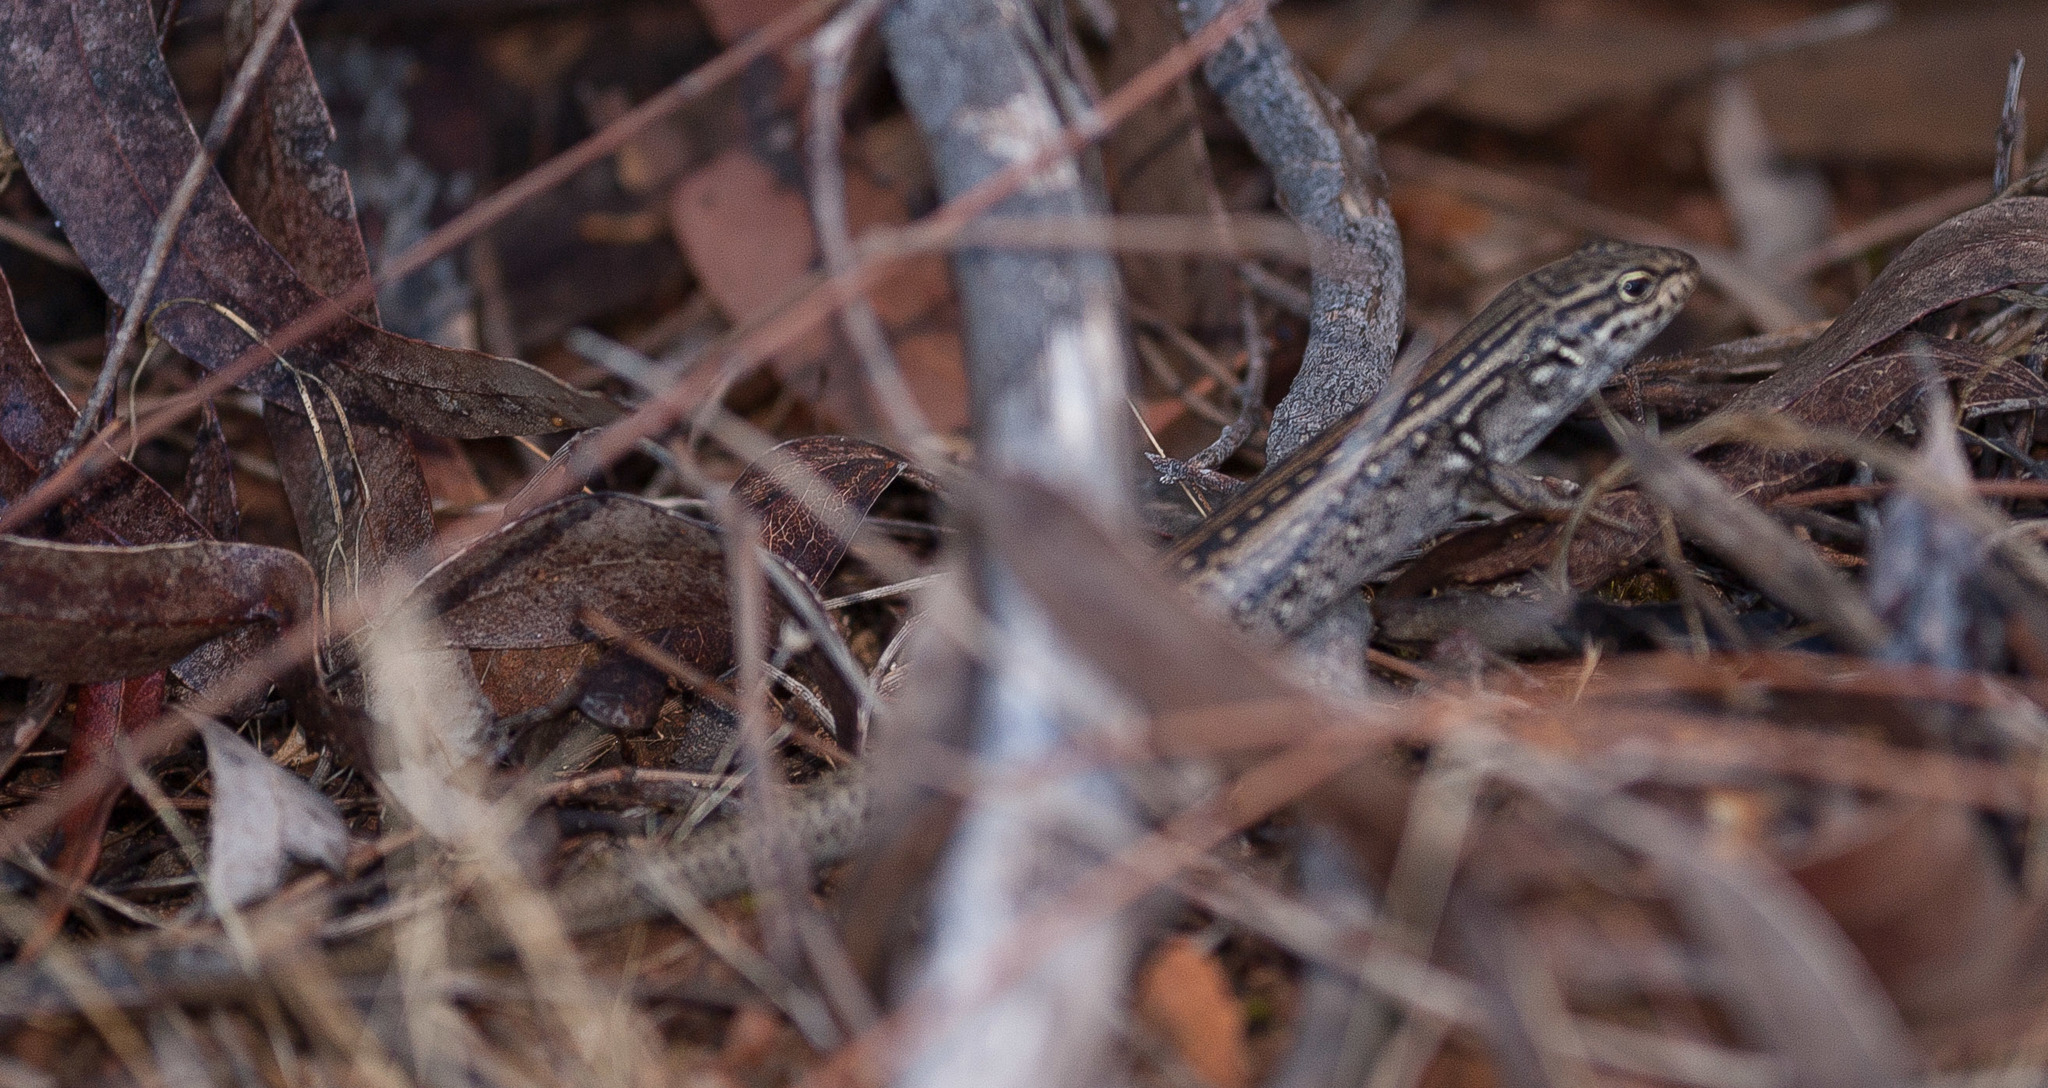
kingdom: Animalia
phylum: Chordata
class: Squamata
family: Scincidae
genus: Liopholis
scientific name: Liopholis whitii
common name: White's rock-skink
